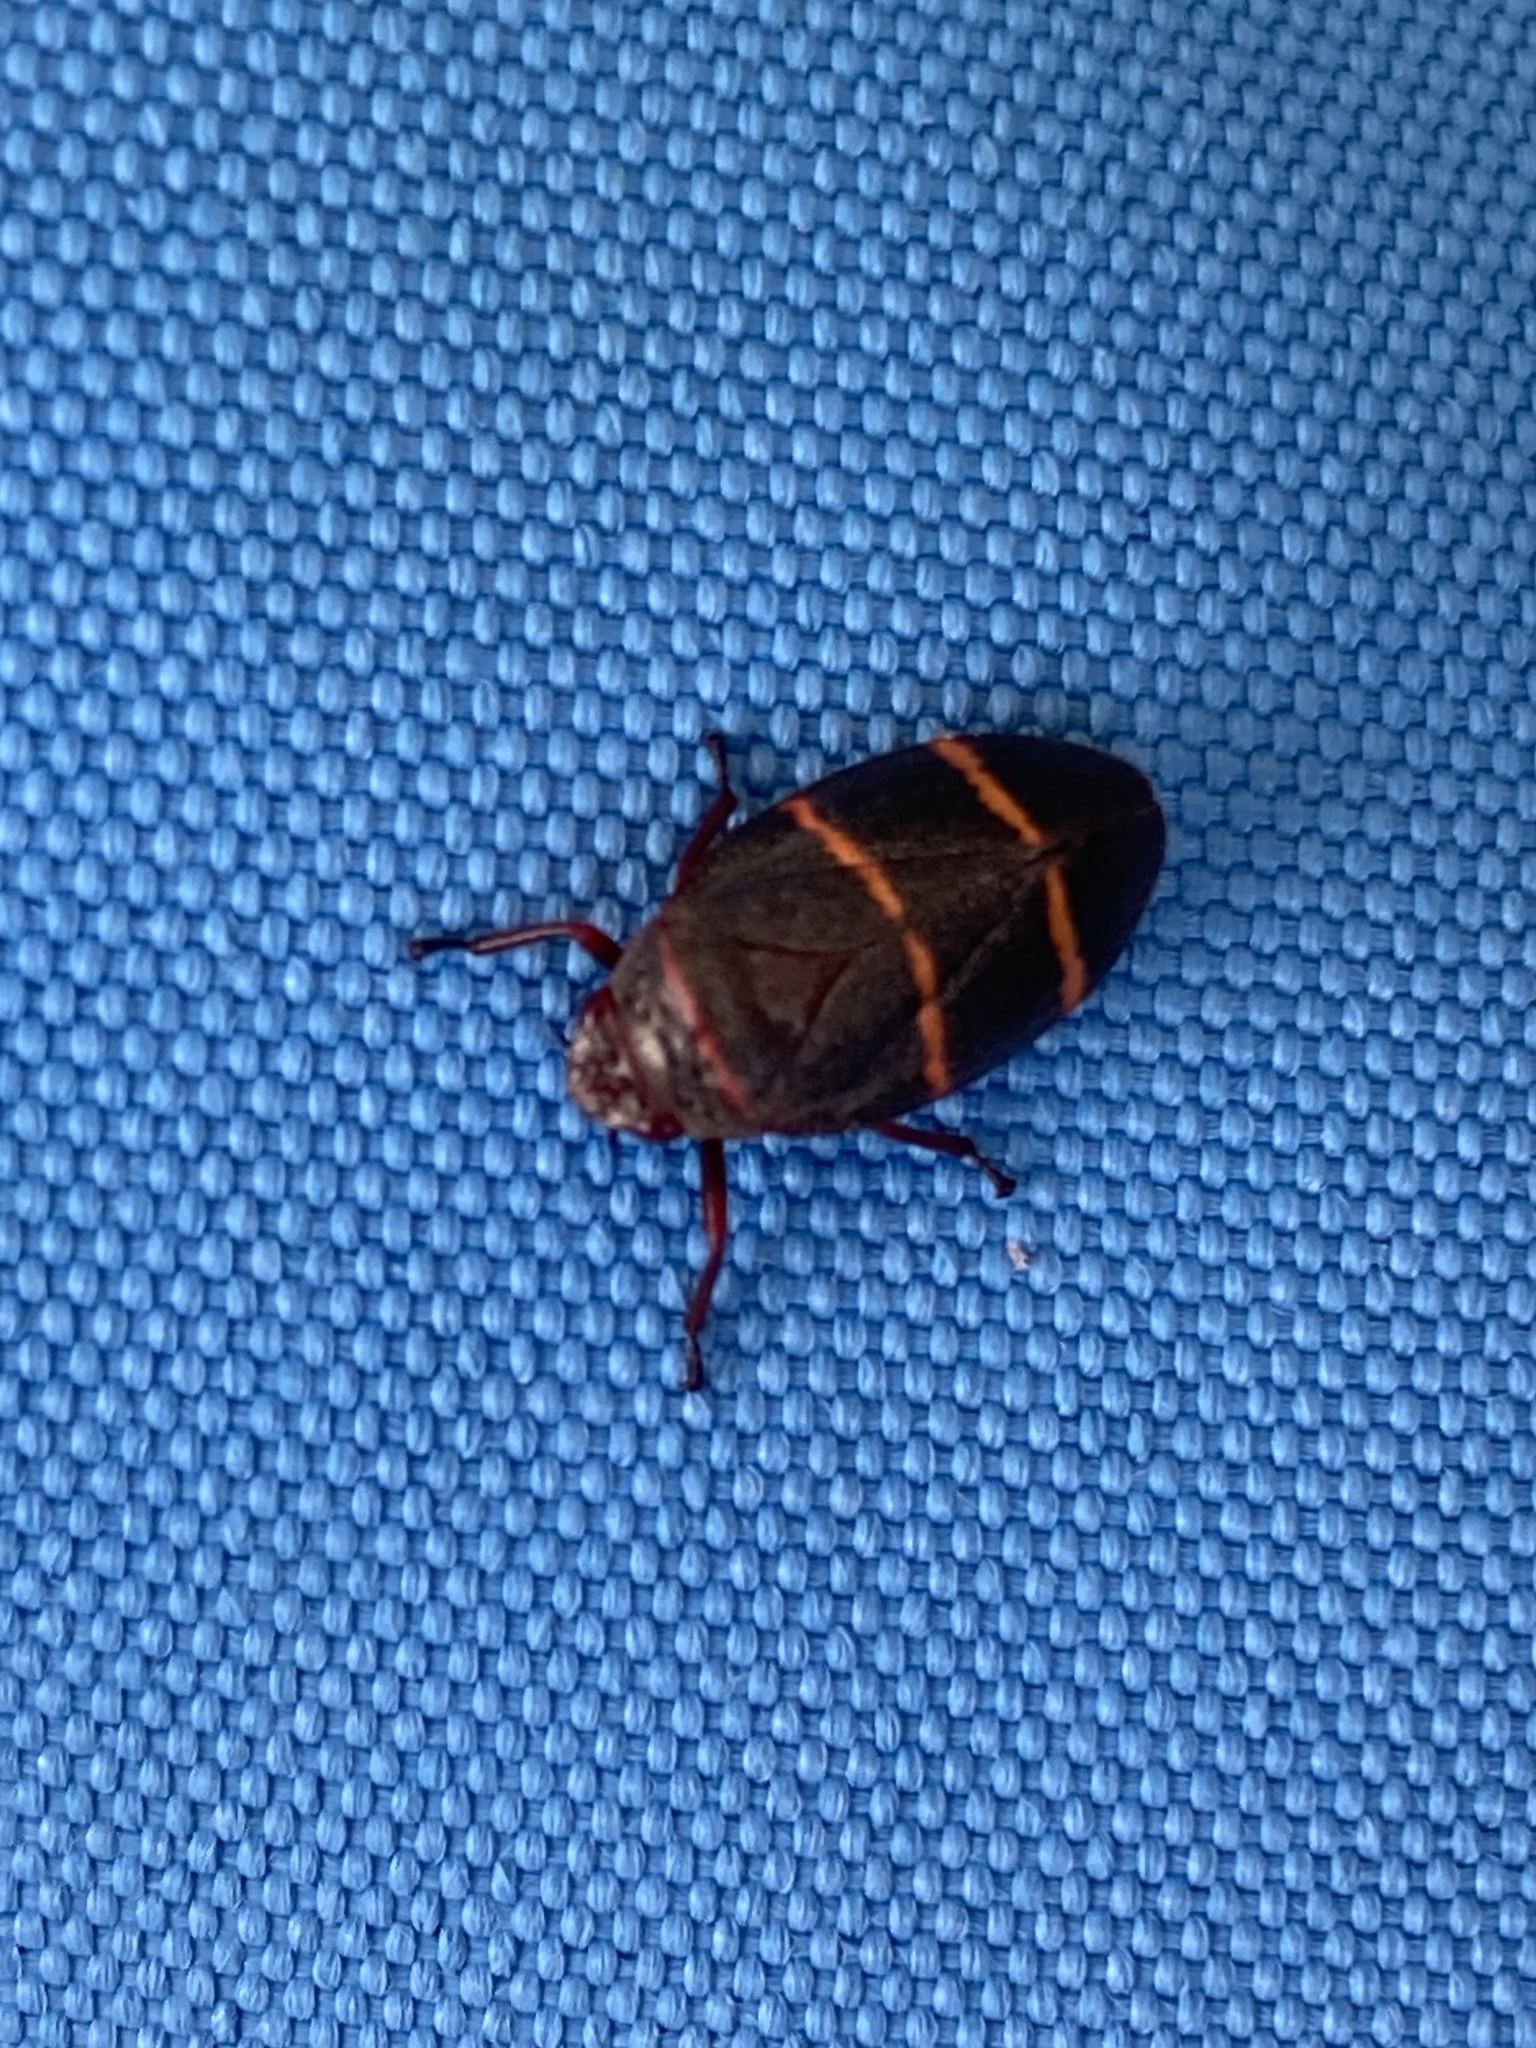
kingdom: Animalia
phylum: Arthropoda
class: Insecta
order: Hemiptera
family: Cercopidae
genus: Prosapia
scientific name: Prosapia bicincta
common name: Twolined spittlebug
